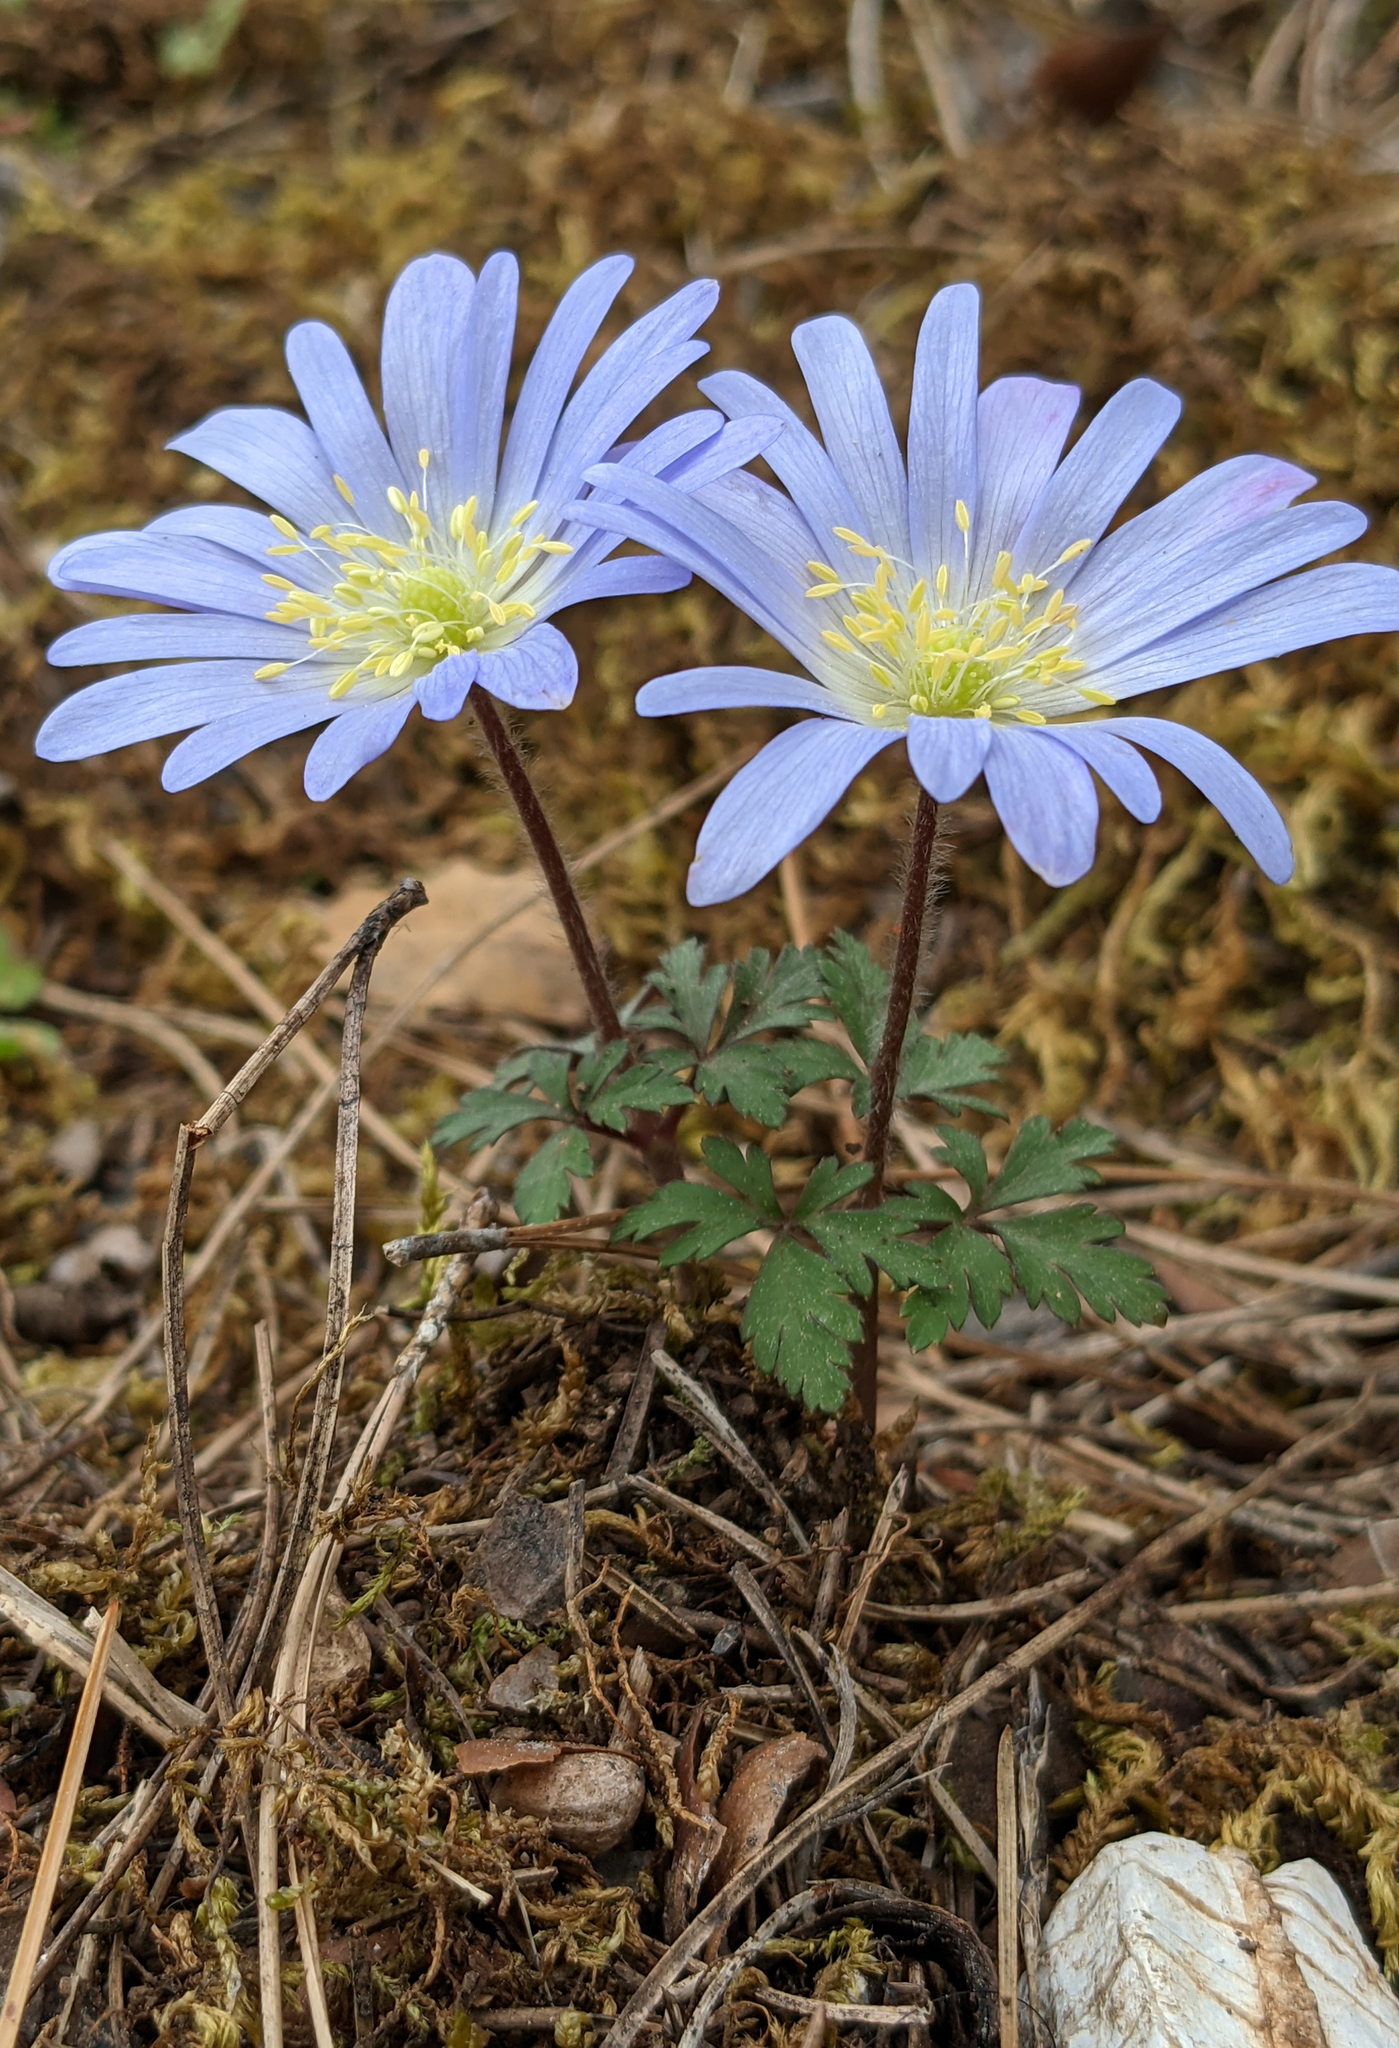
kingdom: Plantae
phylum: Tracheophyta
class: Magnoliopsida
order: Ranunculales
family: Ranunculaceae
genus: Anemone
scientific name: Anemone blanda
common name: Balkan anemone
